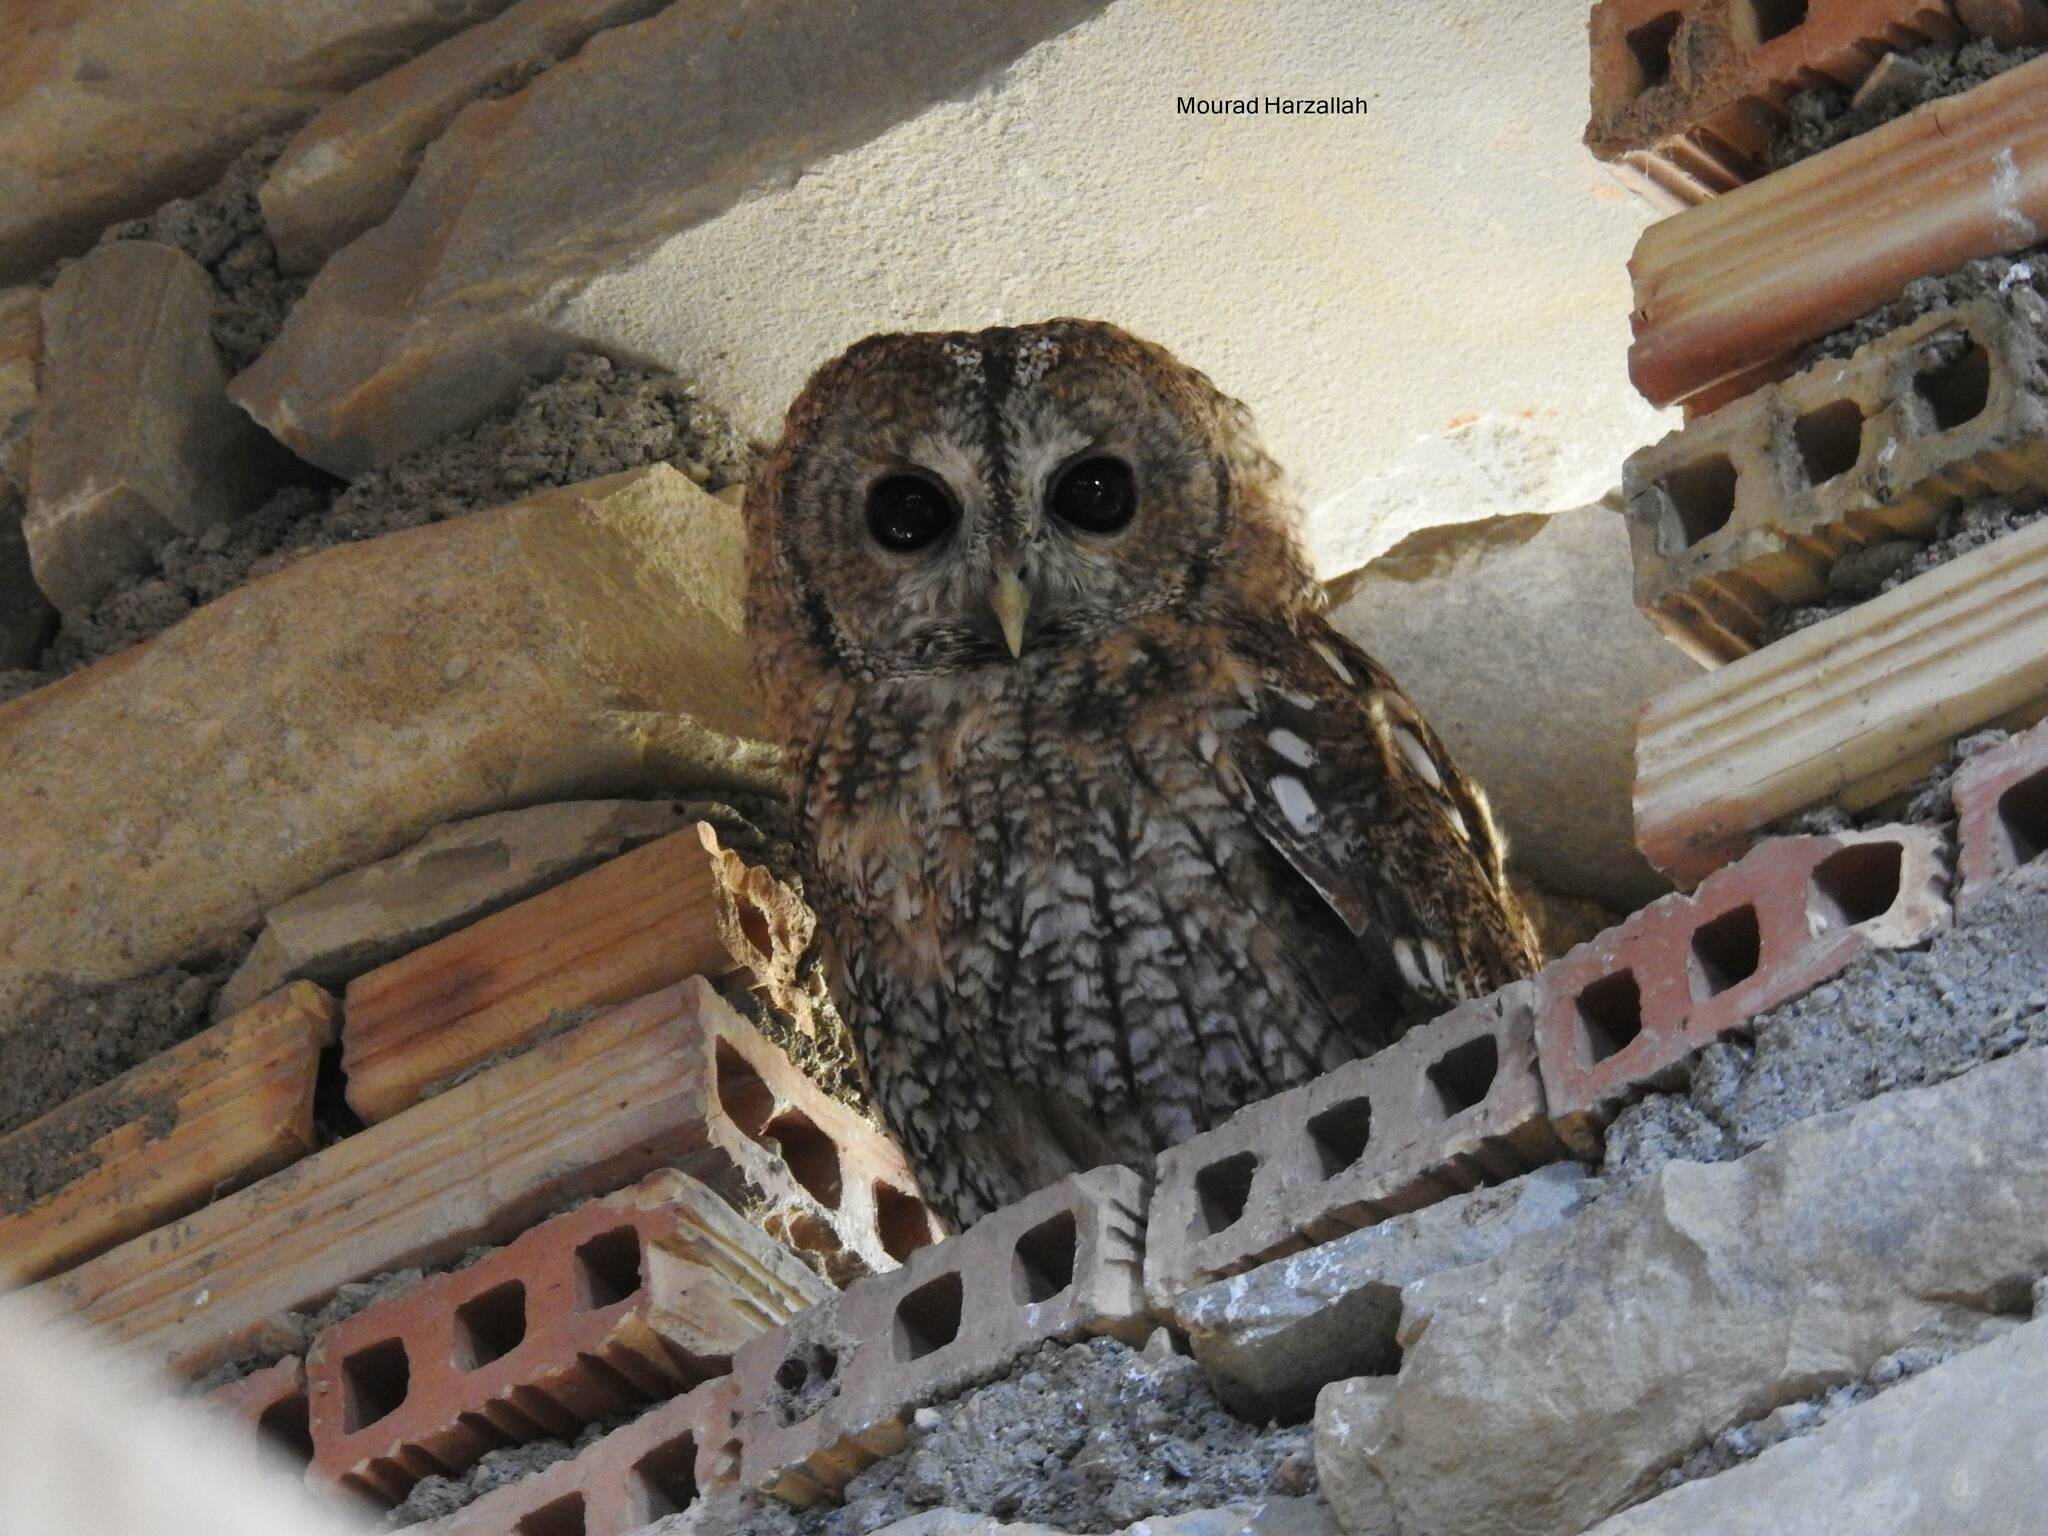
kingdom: Animalia
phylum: Chordata
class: Aves
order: Strigiformes
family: Strigidae
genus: Strix
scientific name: Strix aluco
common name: Tawny owl
